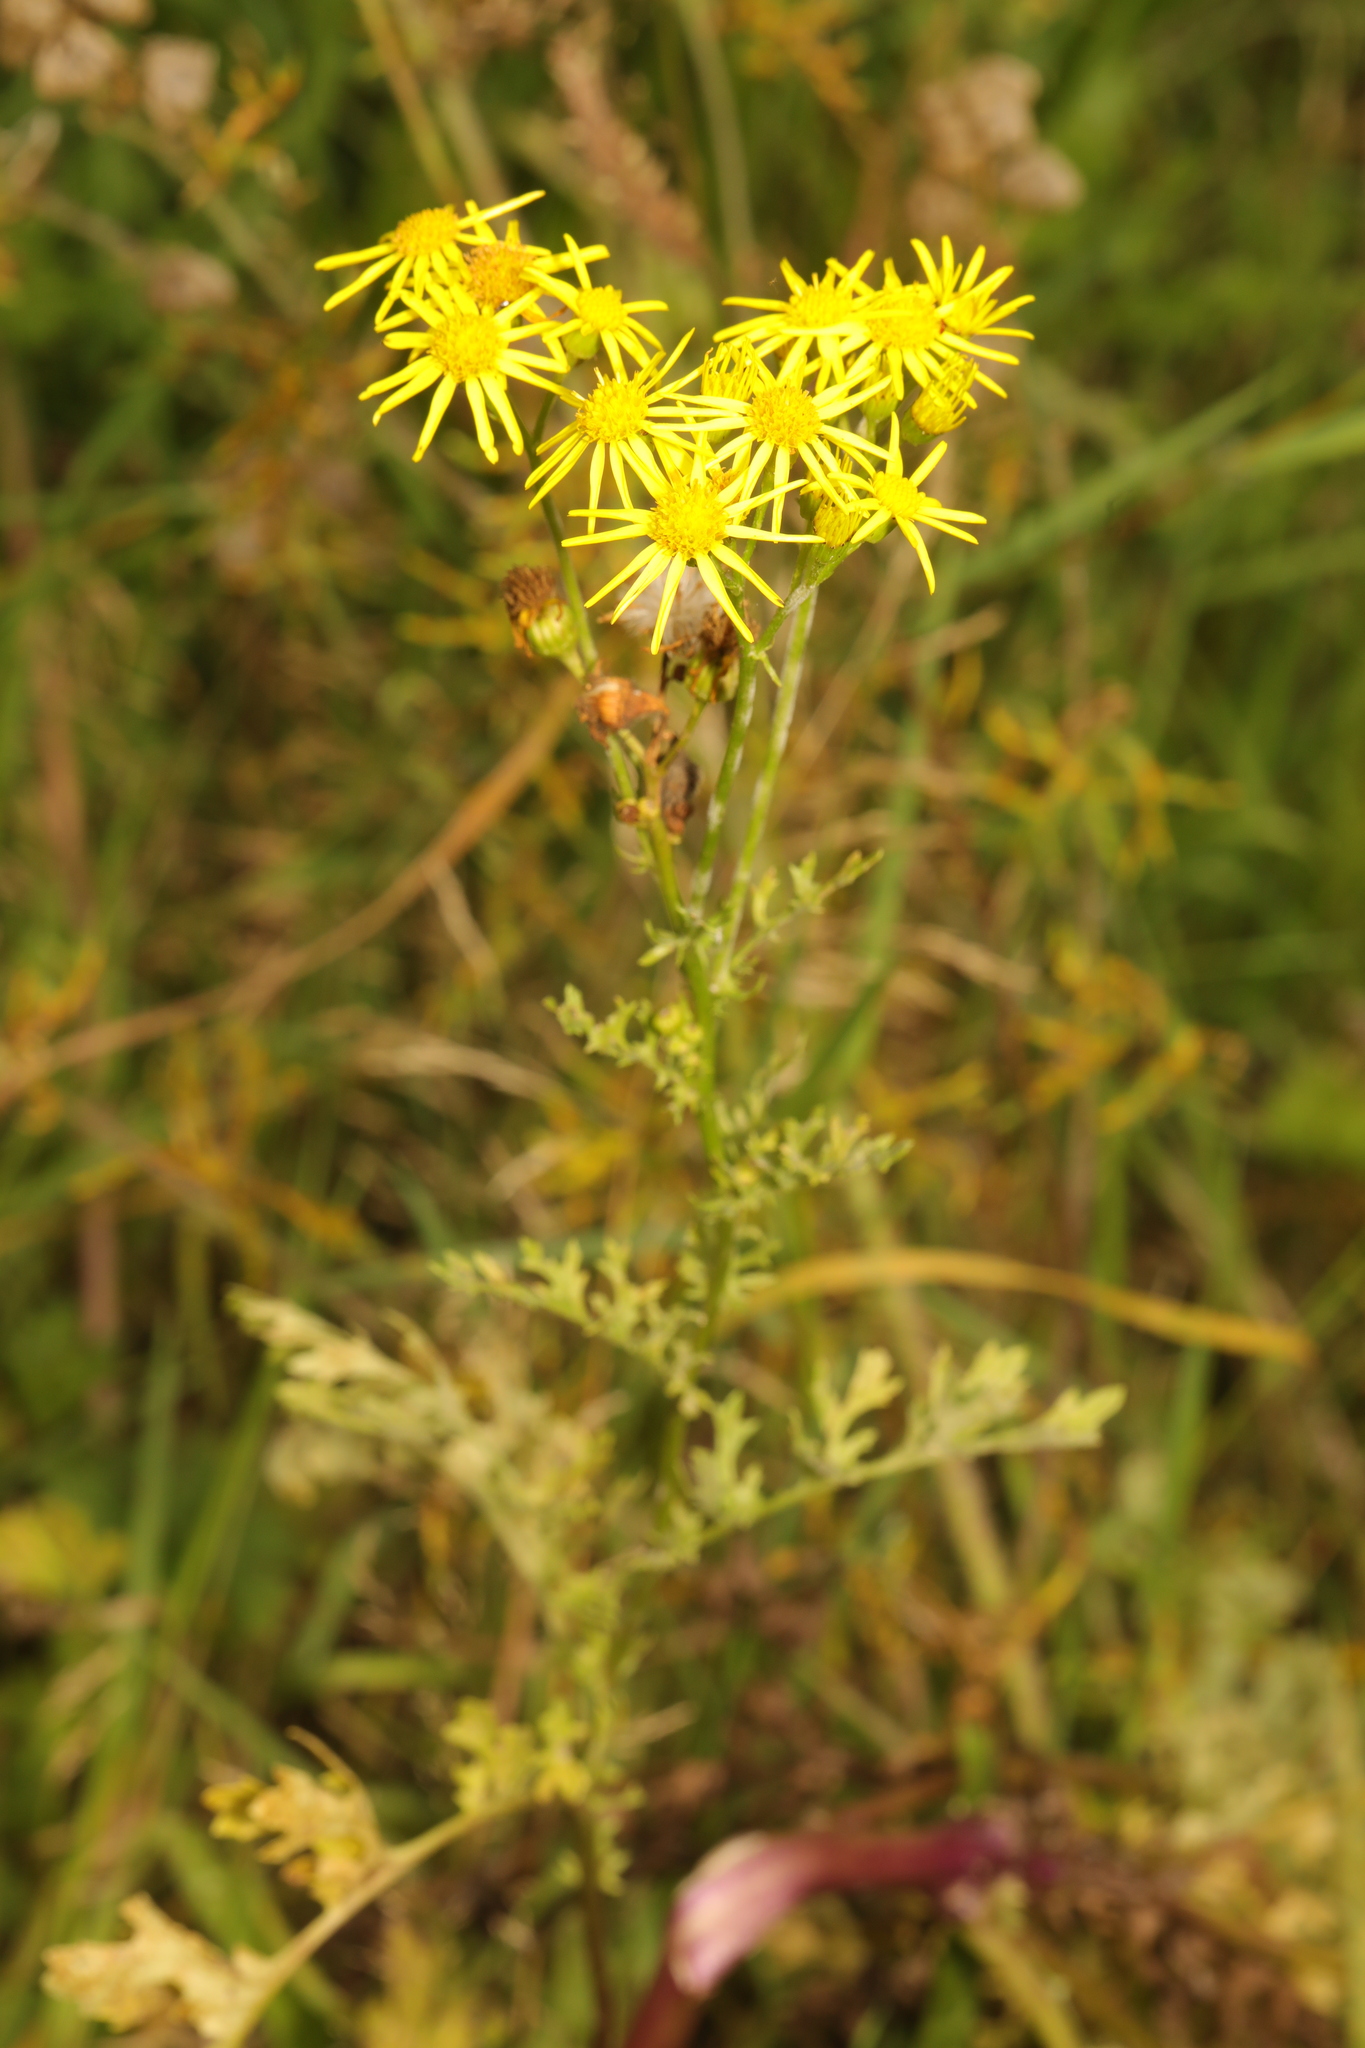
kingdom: Plantae
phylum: Tracheophyta
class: Magnoliopsida
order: Asterales
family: Asteraceae
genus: Jacobaea
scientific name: Jacobaea vulgaris
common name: Stinking willie
